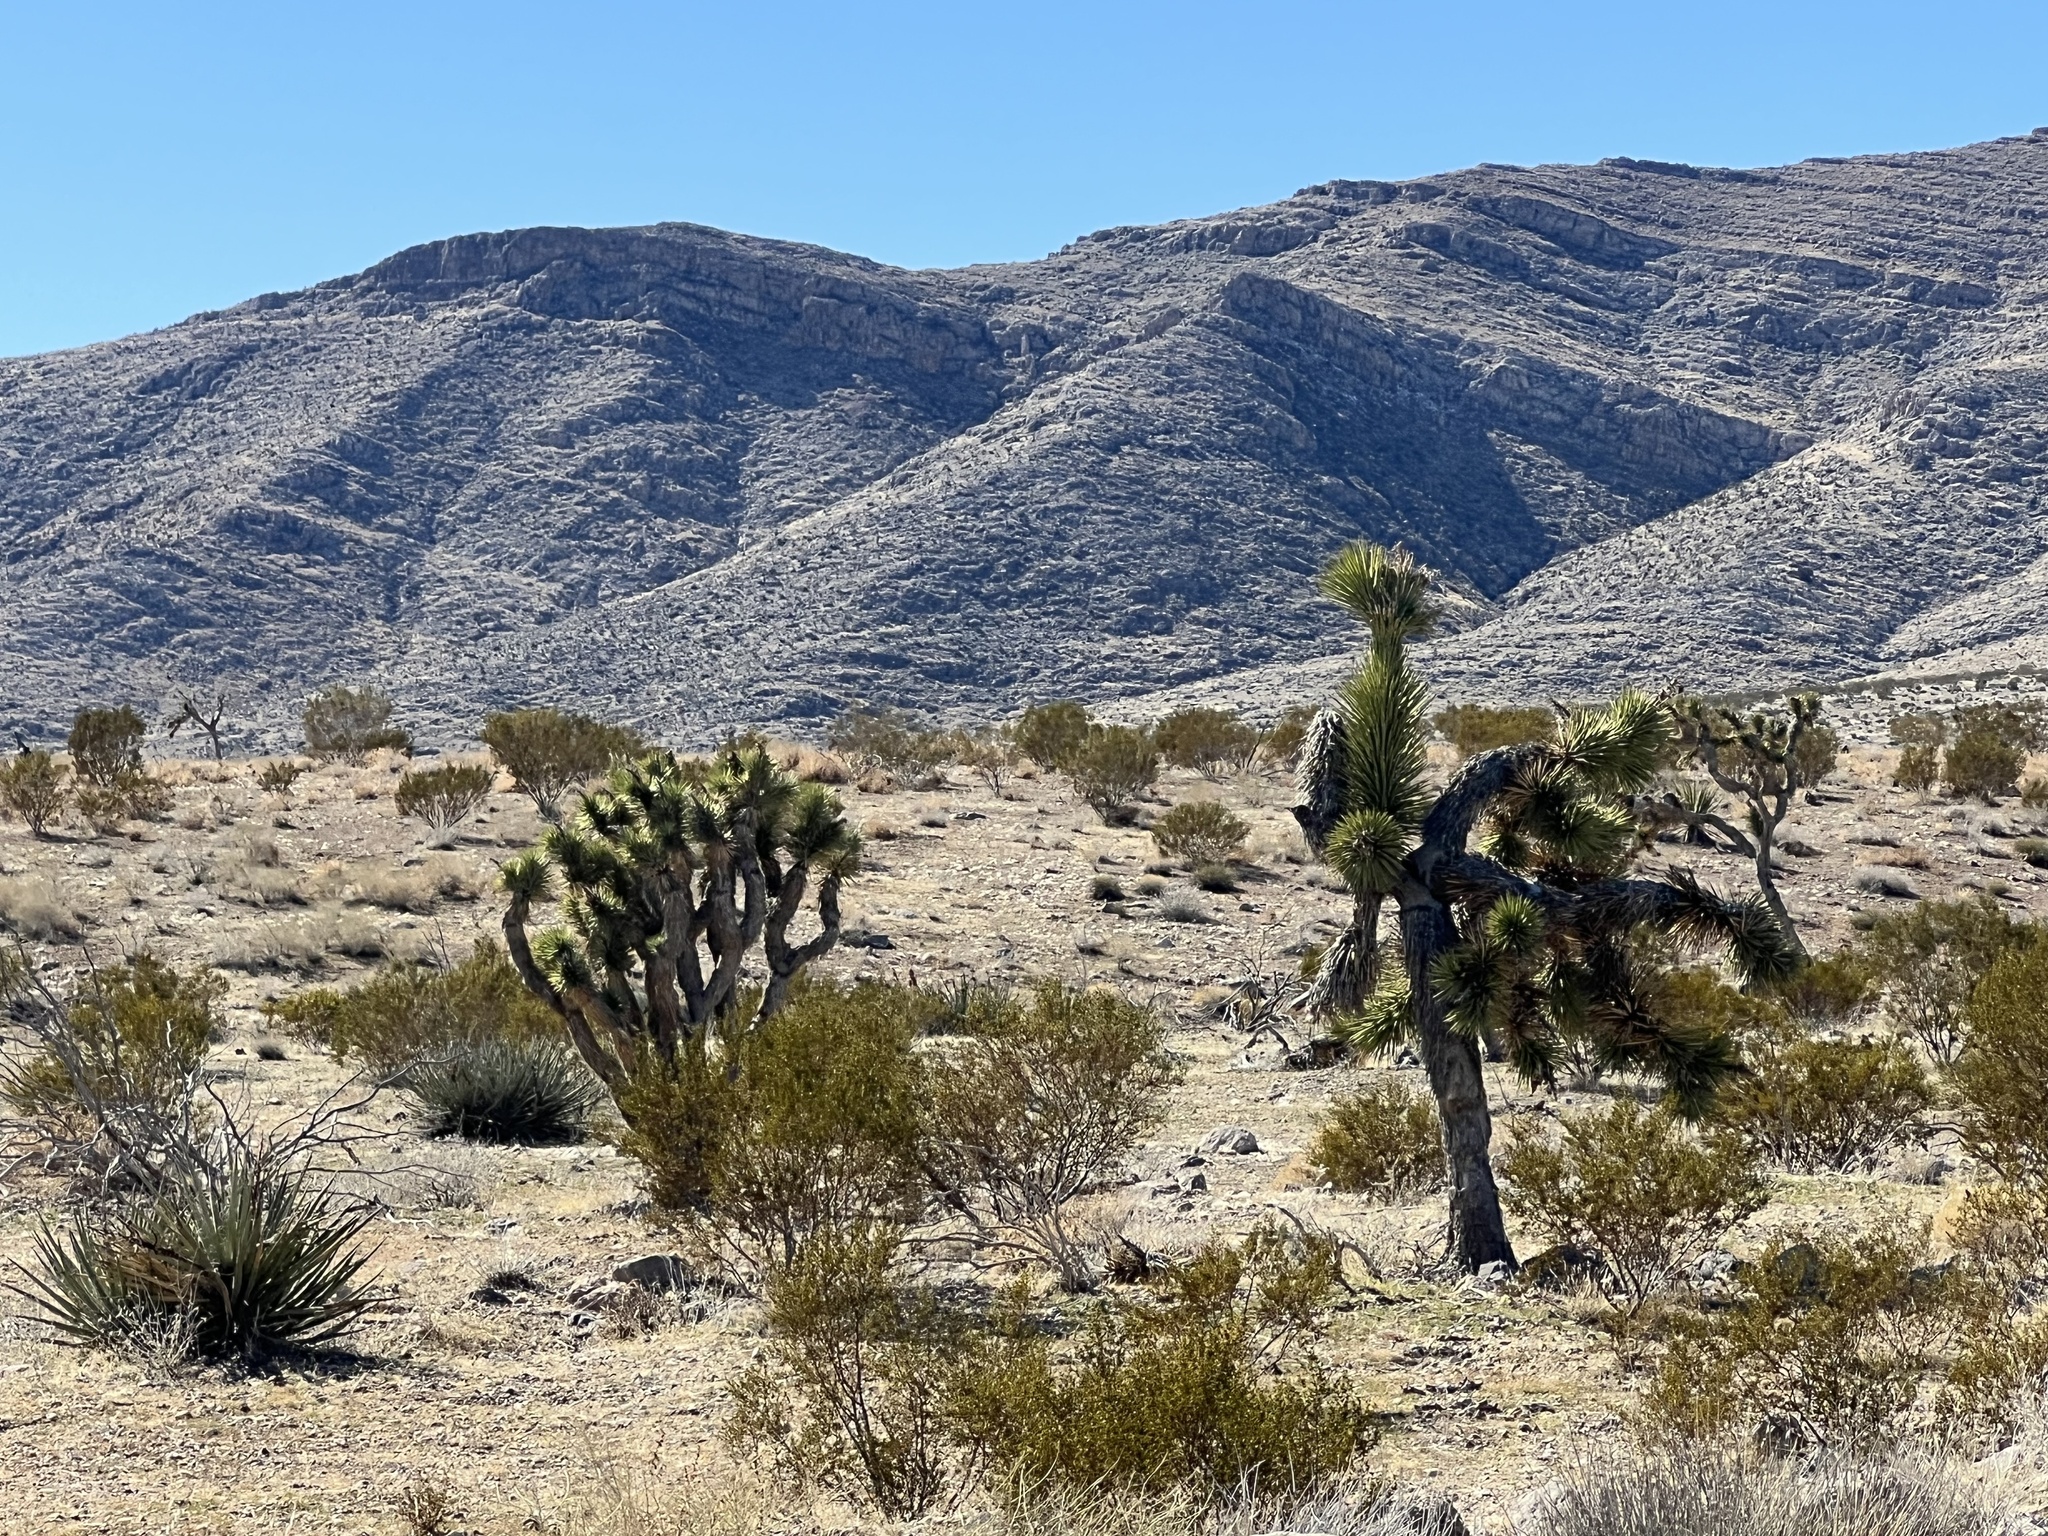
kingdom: Plantae
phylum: Tracheophyta
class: Liliopsida
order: Asparagales
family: Asparagaceae
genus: Yucca
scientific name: Yucca brevifolia
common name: Joshua tree
